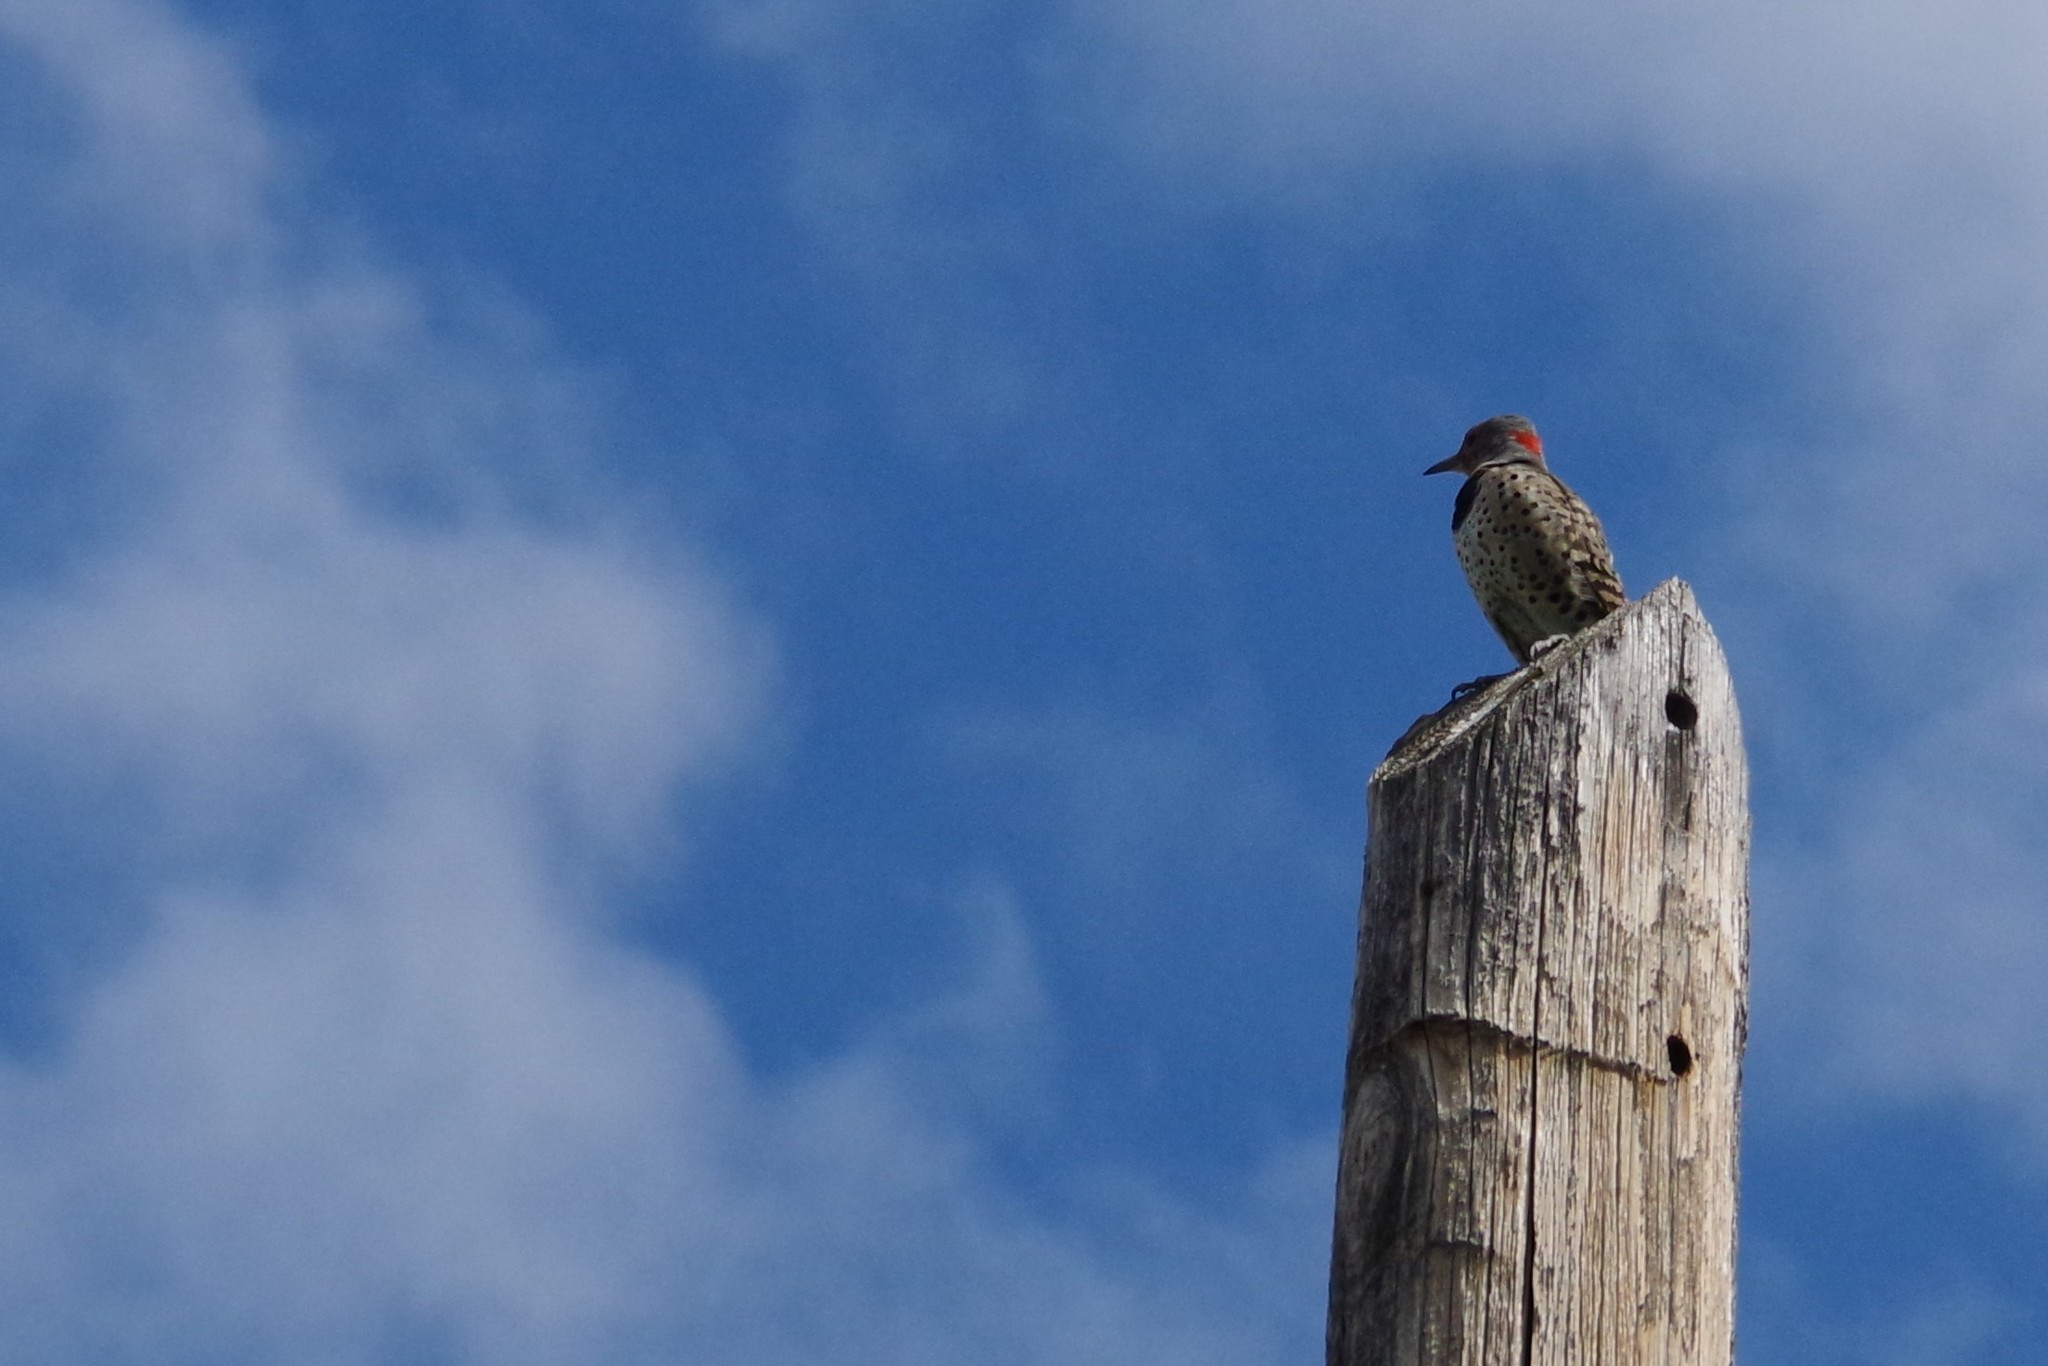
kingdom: Animalia
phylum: Chordata
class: Aves
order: Piciformes
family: Picidae
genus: Colaptes
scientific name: Colaptes auratus
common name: Northern flicker
